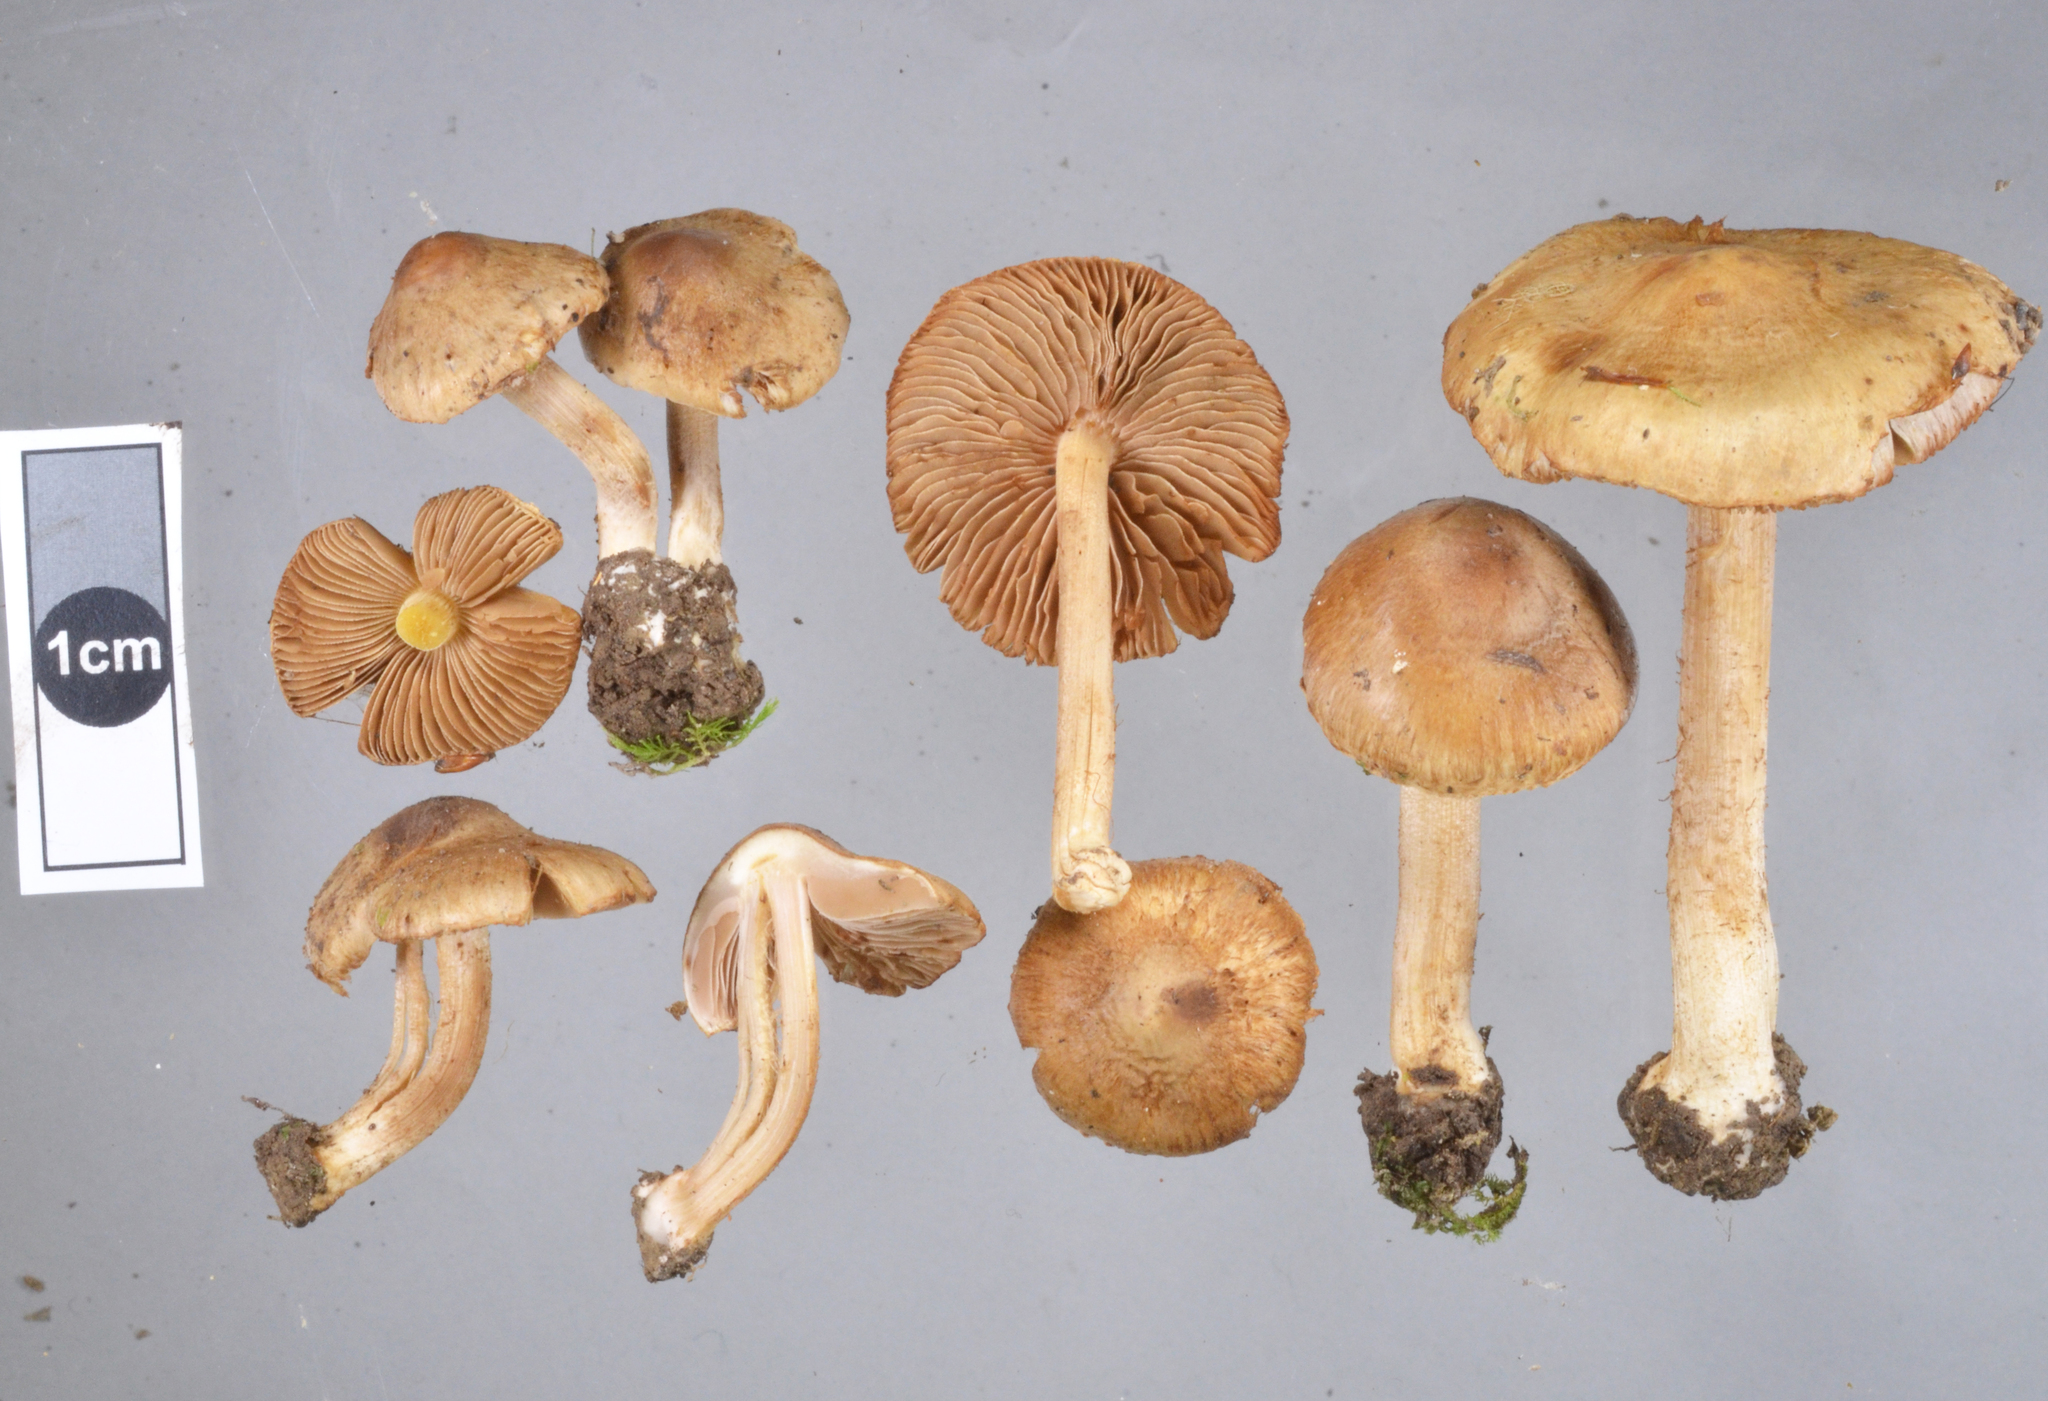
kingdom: Fungi
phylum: Basidiomycota
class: Agaricomycetes
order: Agaricales
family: Inocybaceae
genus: Inocybe
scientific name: Inocybe viscata
